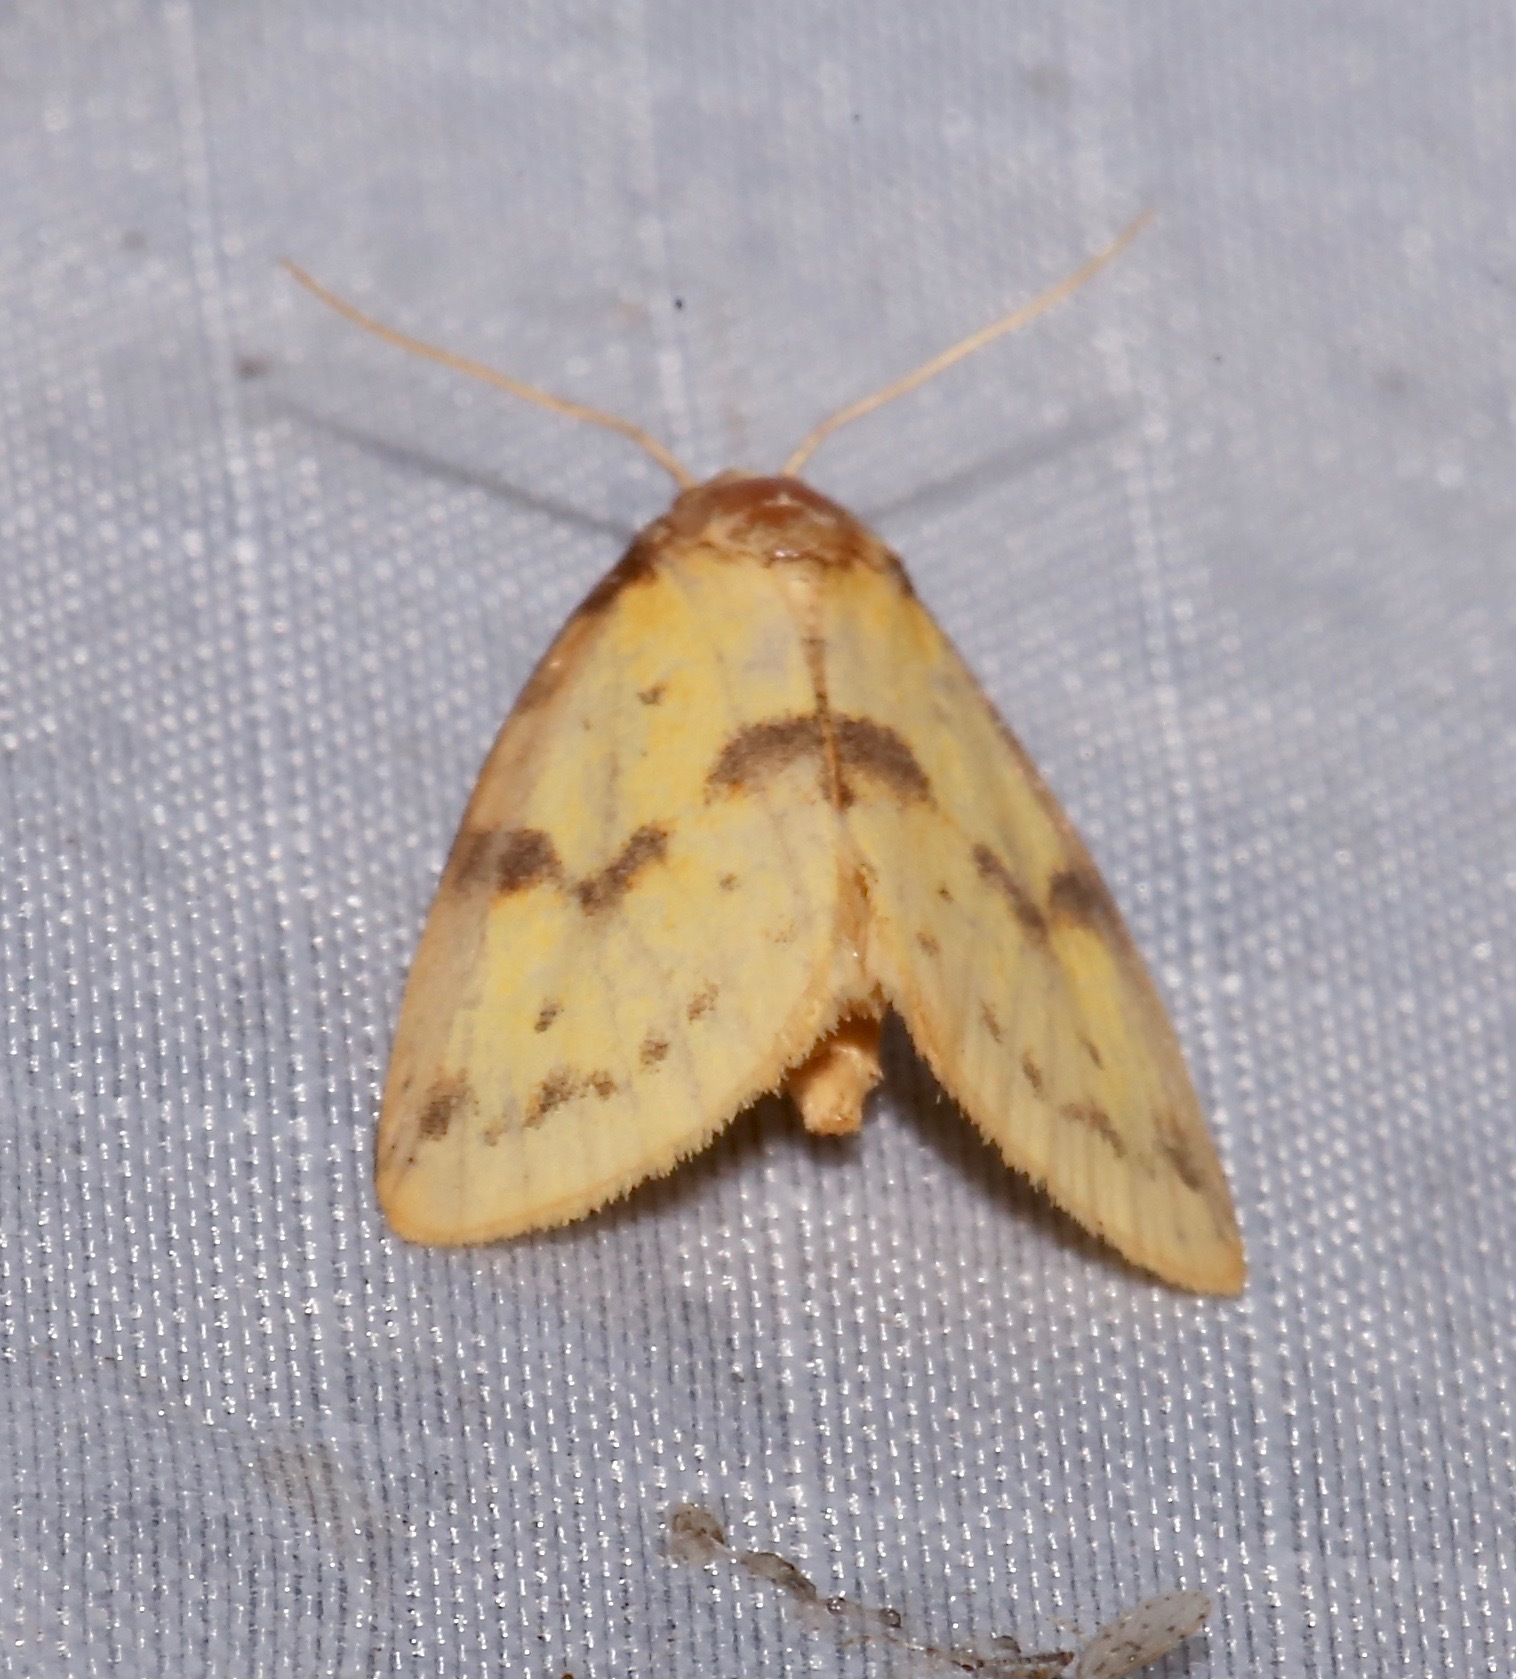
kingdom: Animalia
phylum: Arthropoda
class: Insecta
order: Lepidoptera
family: Noctuidae
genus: Azenia
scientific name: Azenia obtusa
